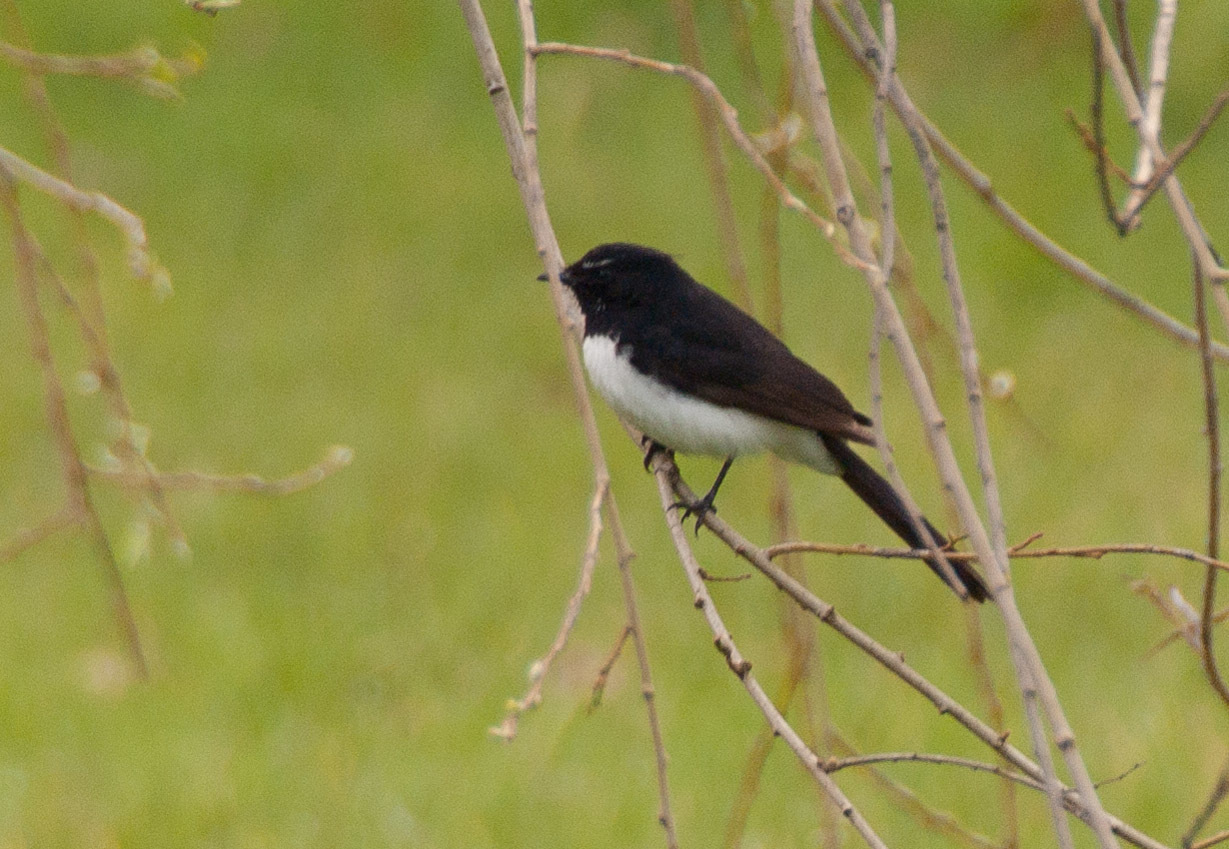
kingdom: Animalia
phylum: Chordata
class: Aves
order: Passeriformes
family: Rhipiduridae
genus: Rhipidura
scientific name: Rhipidura leucophrys
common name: Willie wagtail
